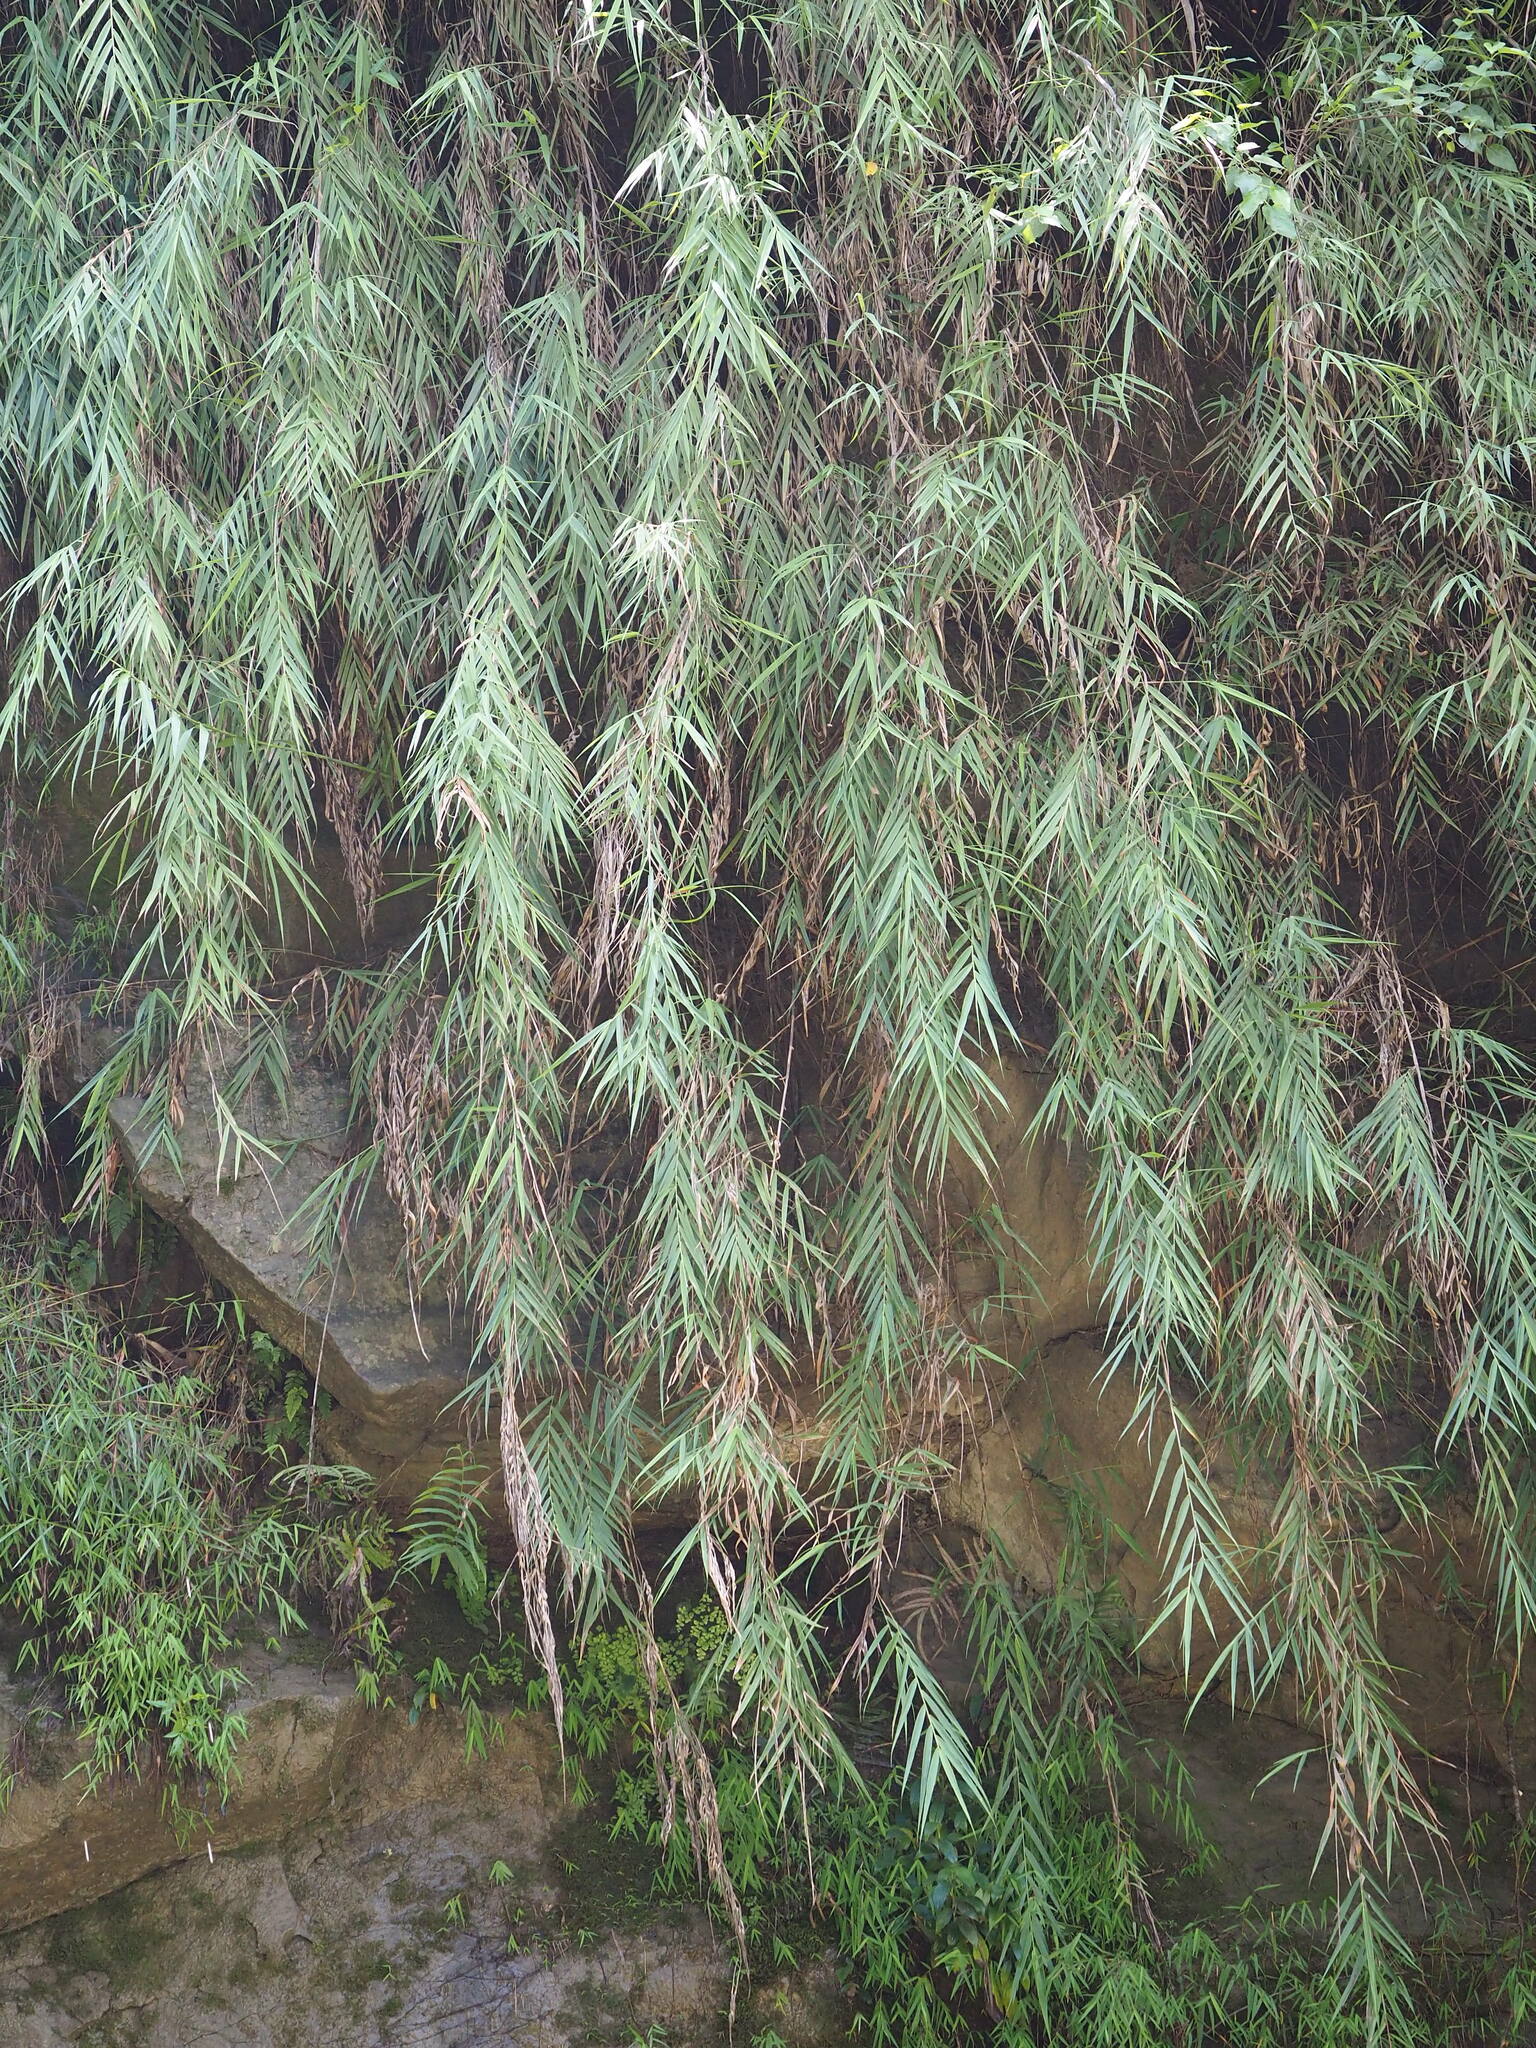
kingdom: Plantae
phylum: Tracheophyta
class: Liliopsida
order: Poales
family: Poaceae
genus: Arundo
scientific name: Arundo formosana
